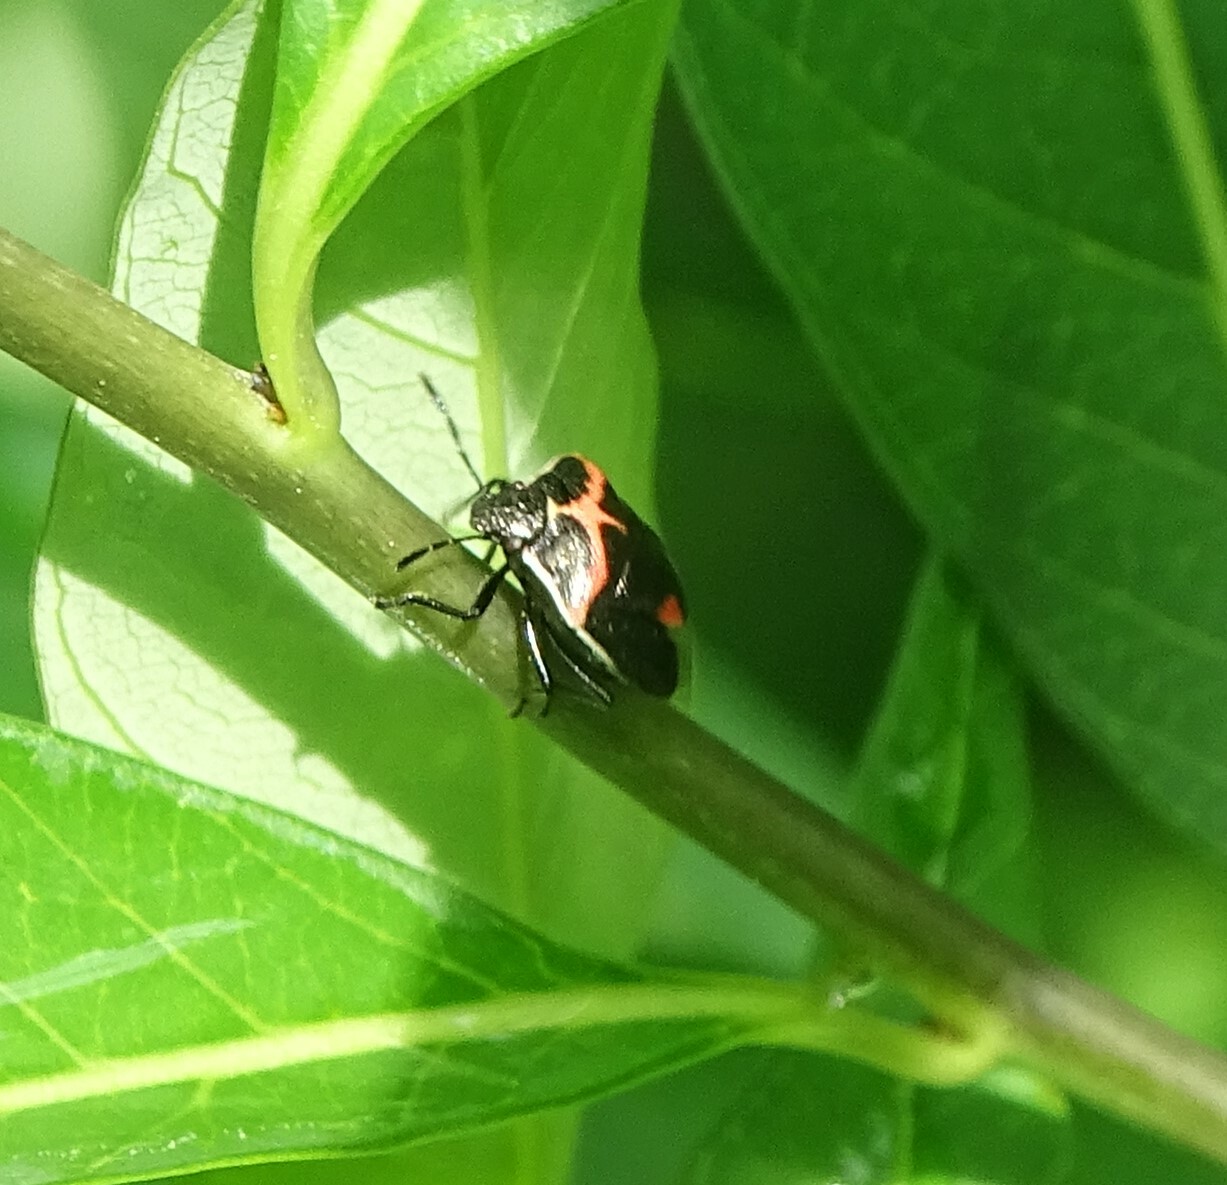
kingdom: Animalia
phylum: Arthropoda
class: Insecta
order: Hemiptera
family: Pentatomidae
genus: Cosmopepla
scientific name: Cosmopepla lintneriana
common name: Twice-stabbed stink bug
